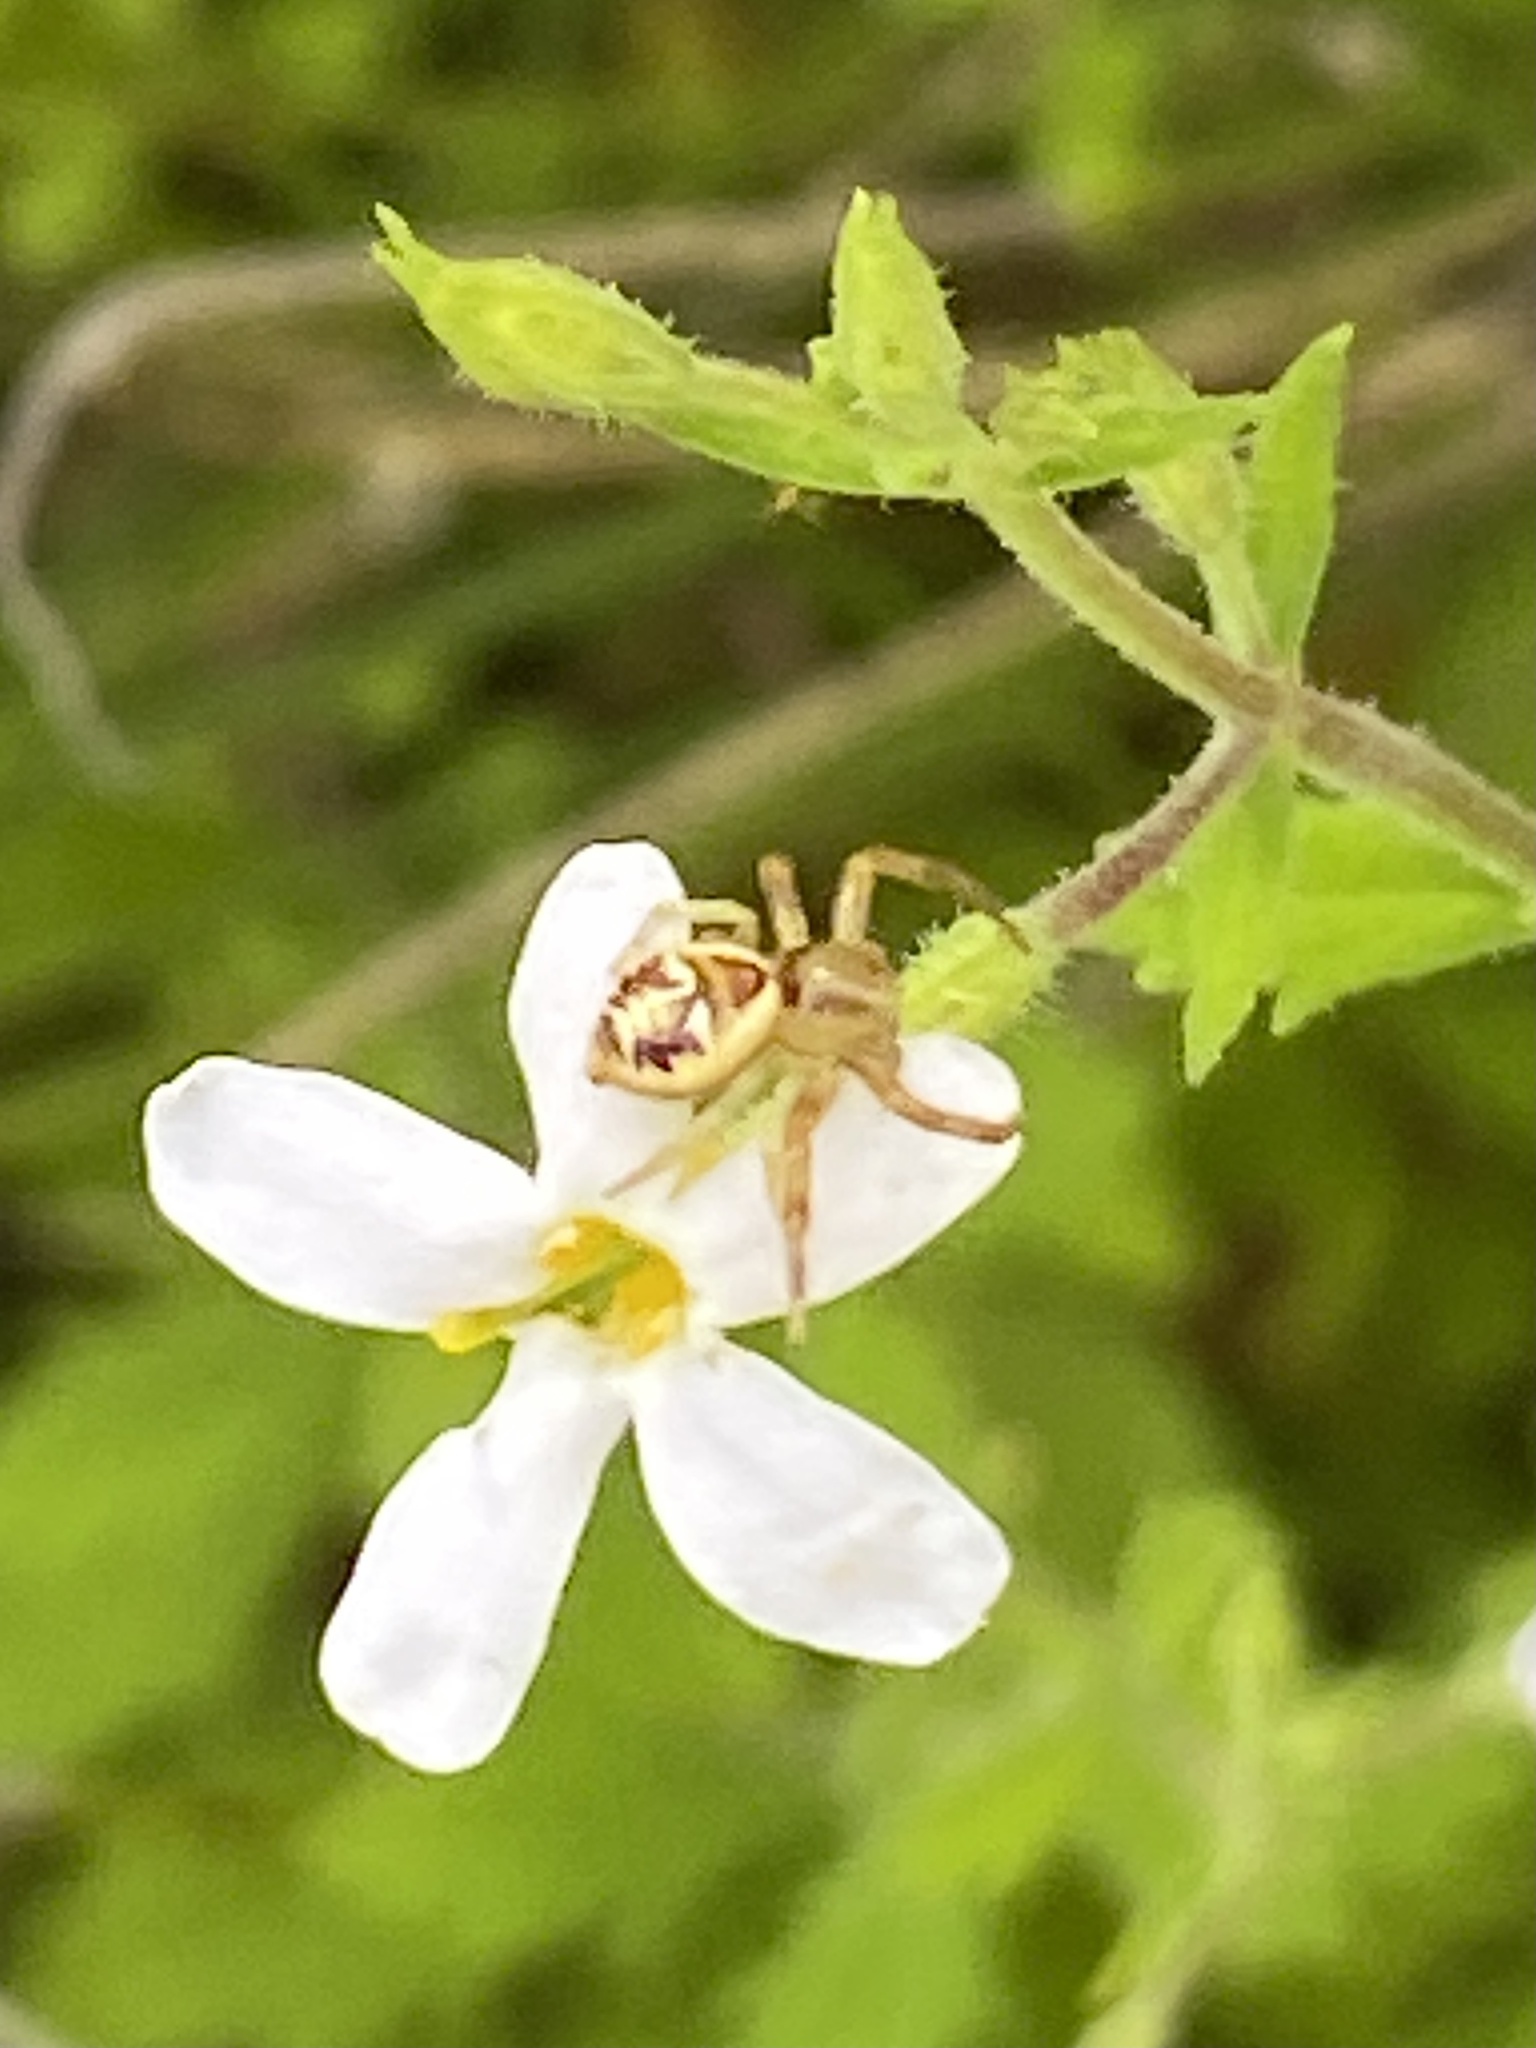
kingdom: Animalia
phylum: Arthropoda
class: Arachnida
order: Araneae
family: Thomisidae
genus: Synema
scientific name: Synema imitatrix
